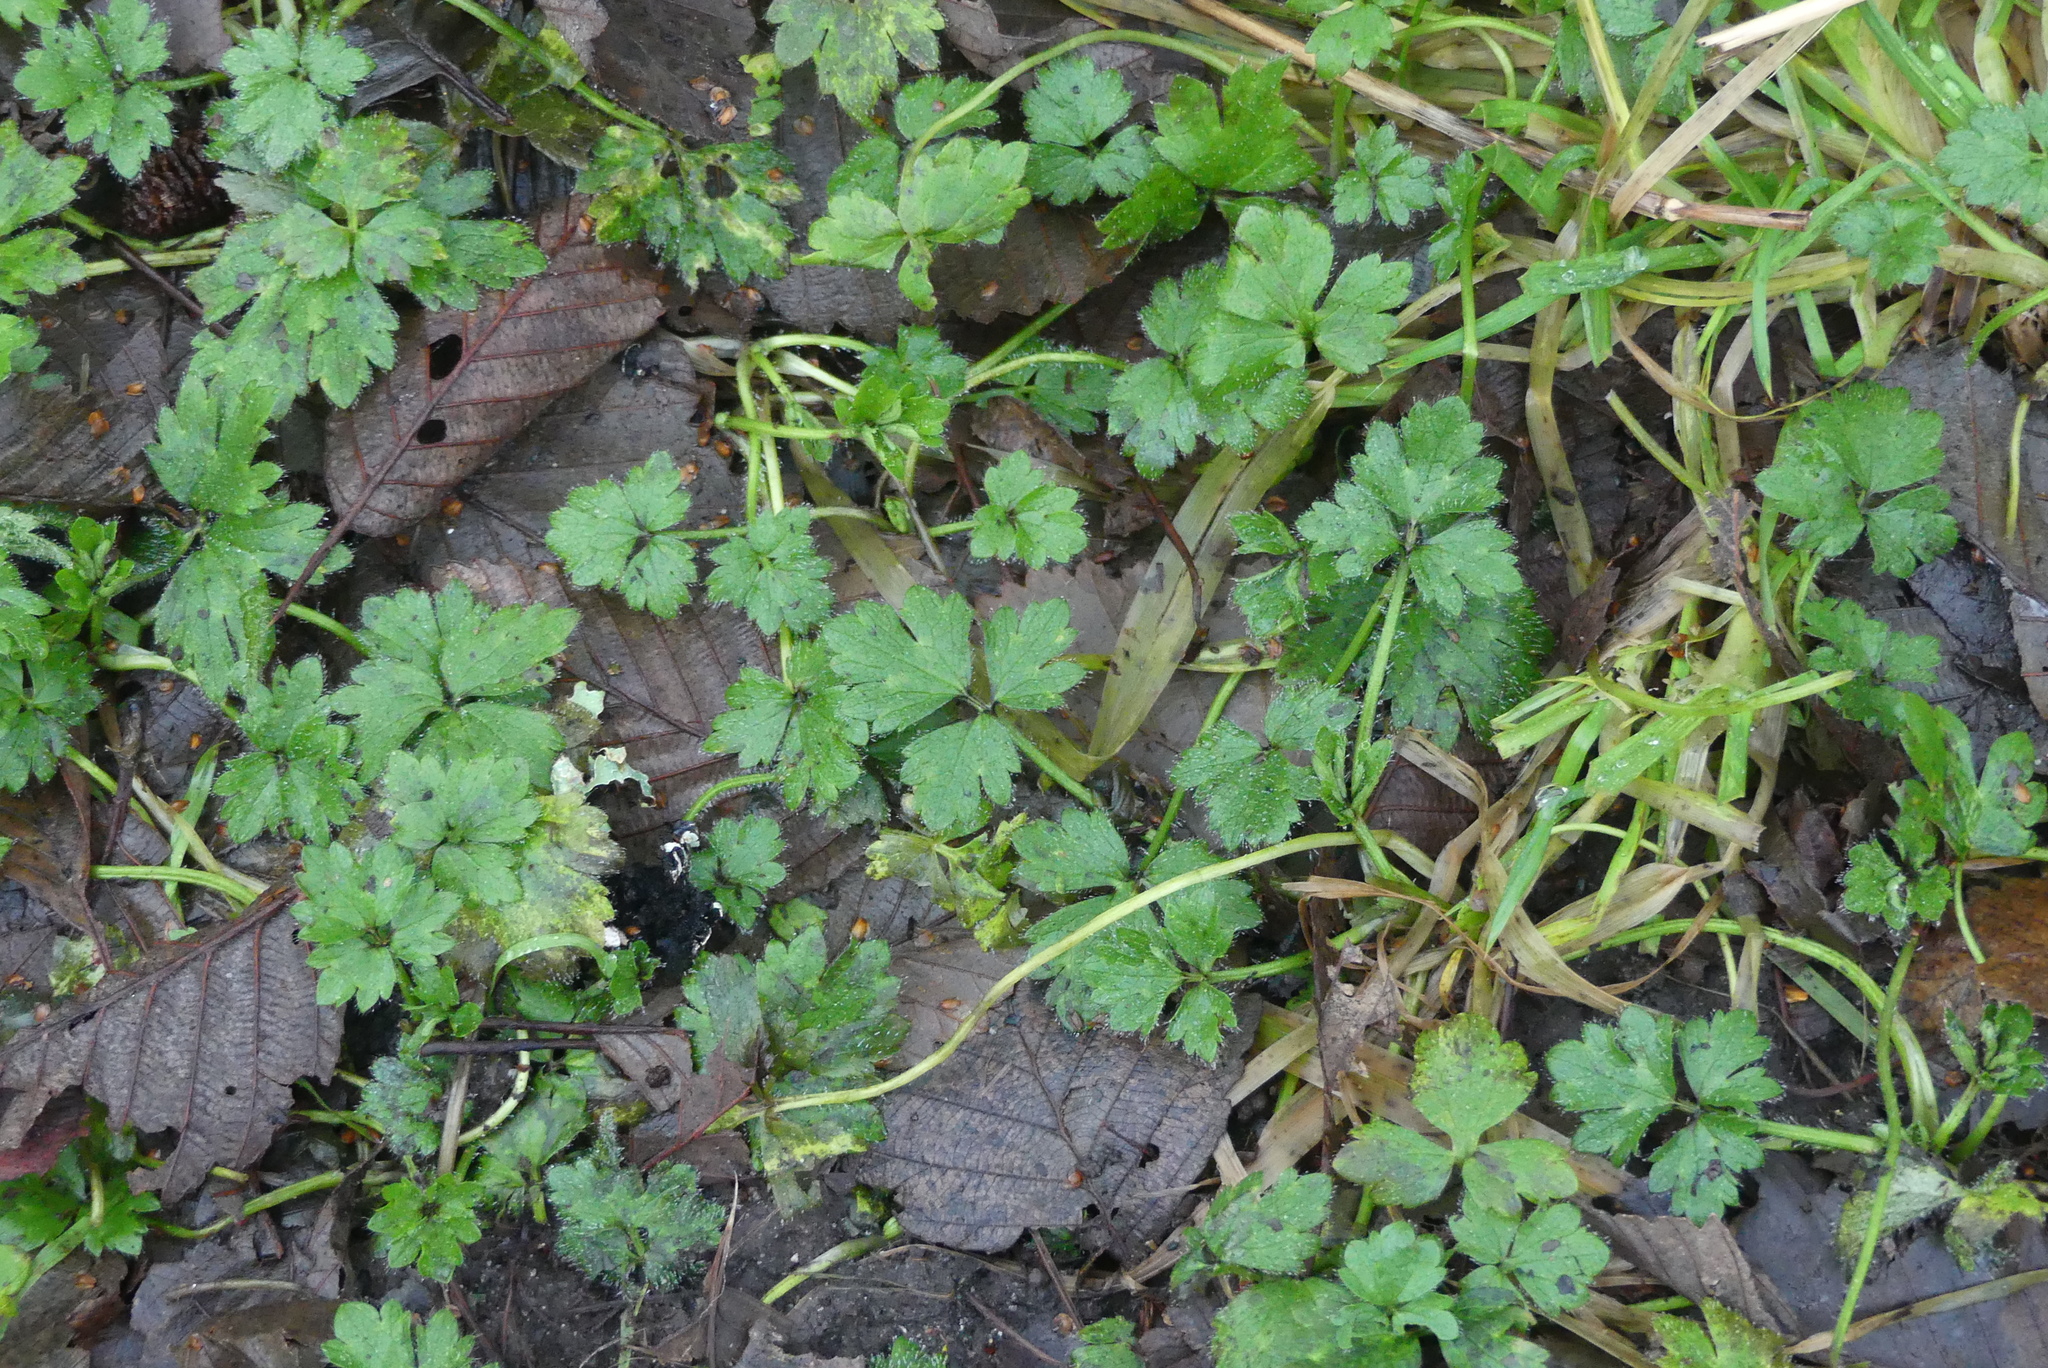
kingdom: Plantae
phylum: Tracheophyta
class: Magnoliopsida
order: Ranunculales
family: Ranunculaceae
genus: Ranunculus
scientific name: Ranunculus repens
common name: Creeping buttercup
